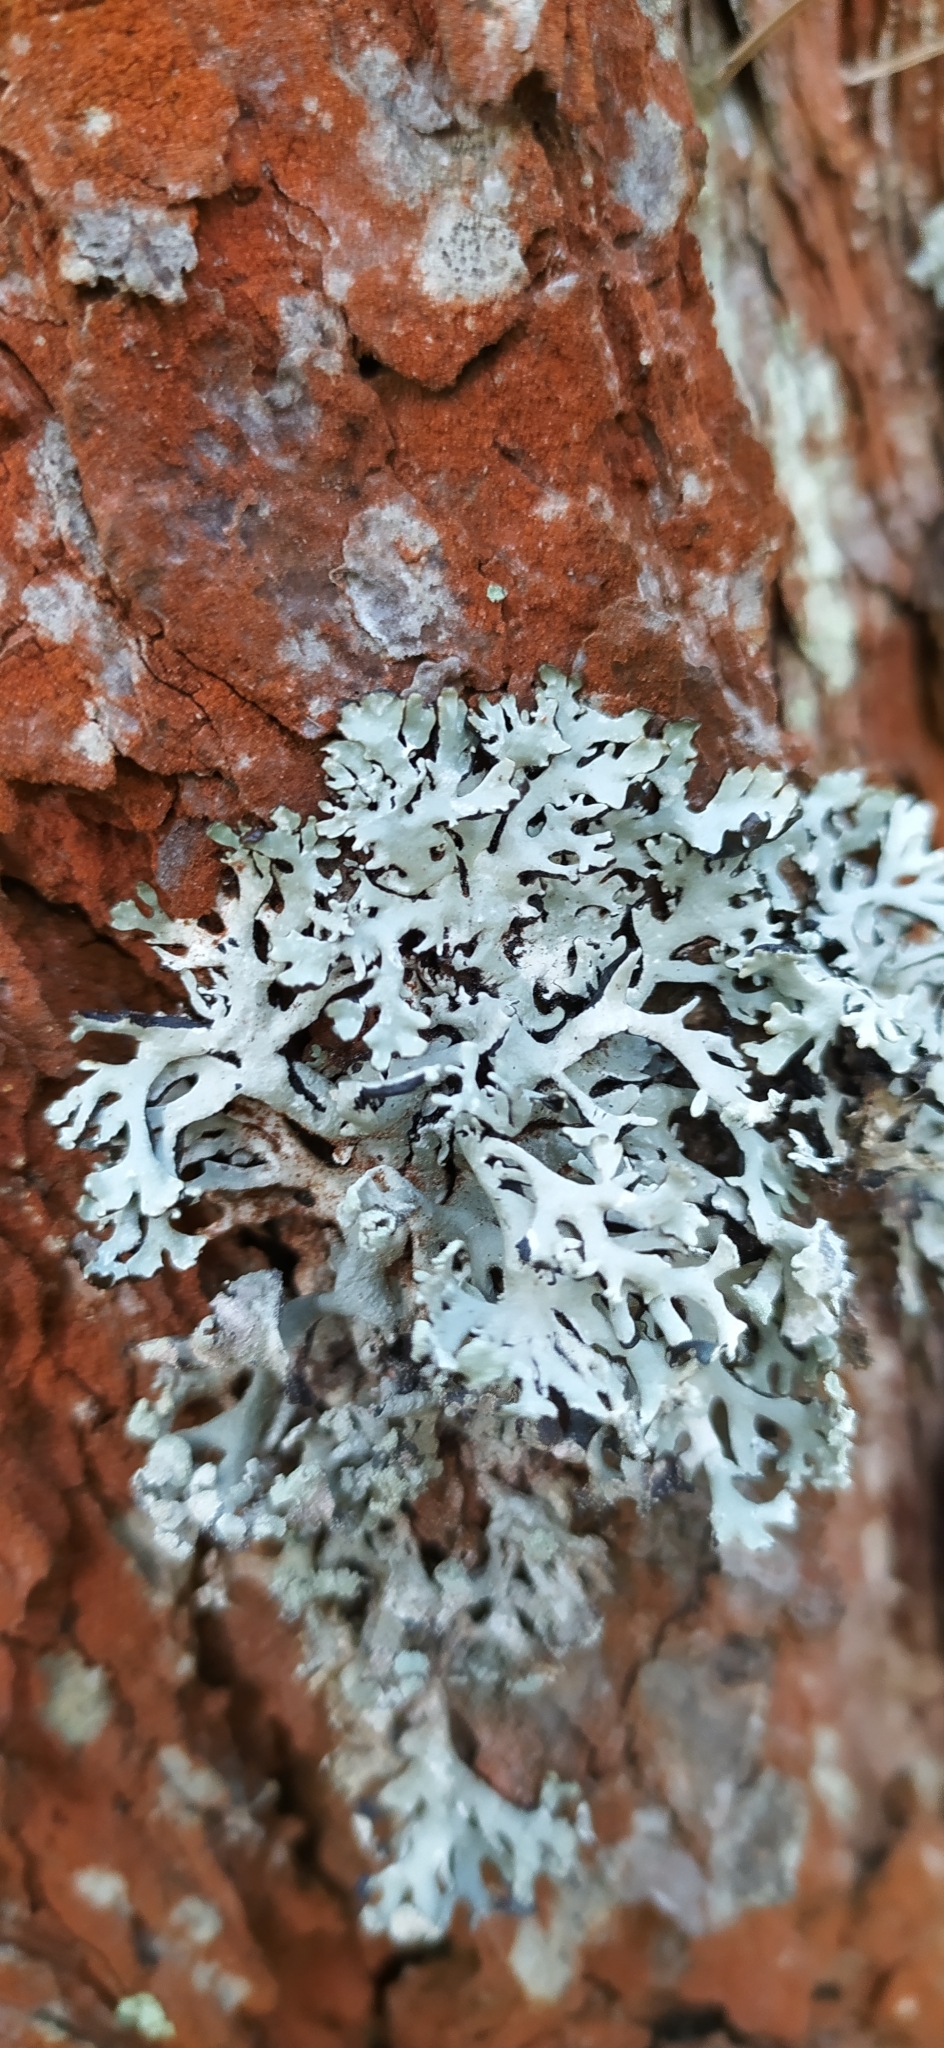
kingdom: Fungi
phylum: Ascomycota
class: Lecanoromycetes
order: Lecanorales
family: Parmeliaceae
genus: Hypogymnia
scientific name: Hypogymnia physodes
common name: Dark crottle
